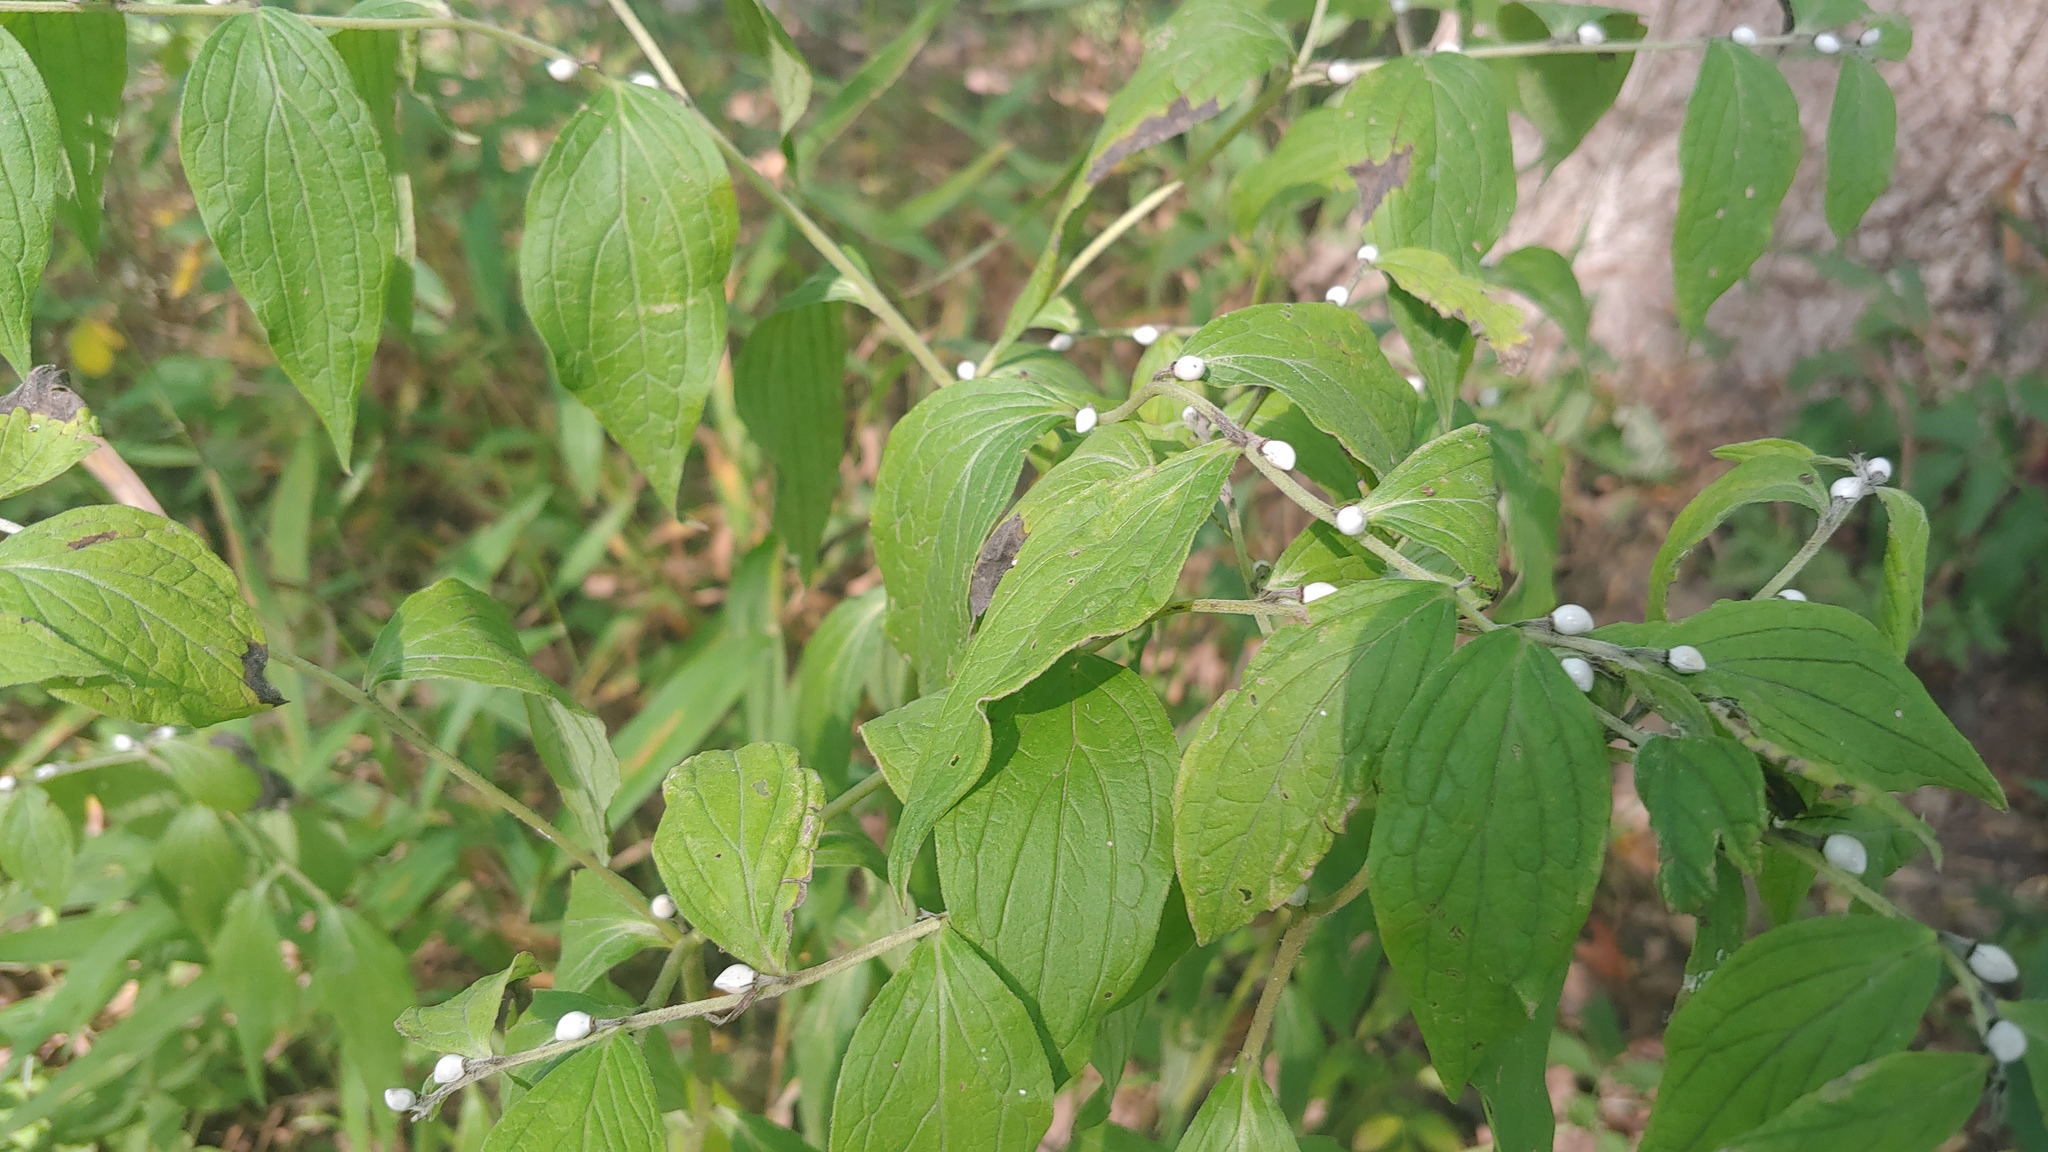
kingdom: Plantae
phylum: Tracheophyta
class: Magnoliopsida
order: Boraginales
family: Boraginaceae
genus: Lithospermum
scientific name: Lithospermum latifolium
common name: American gromwell
